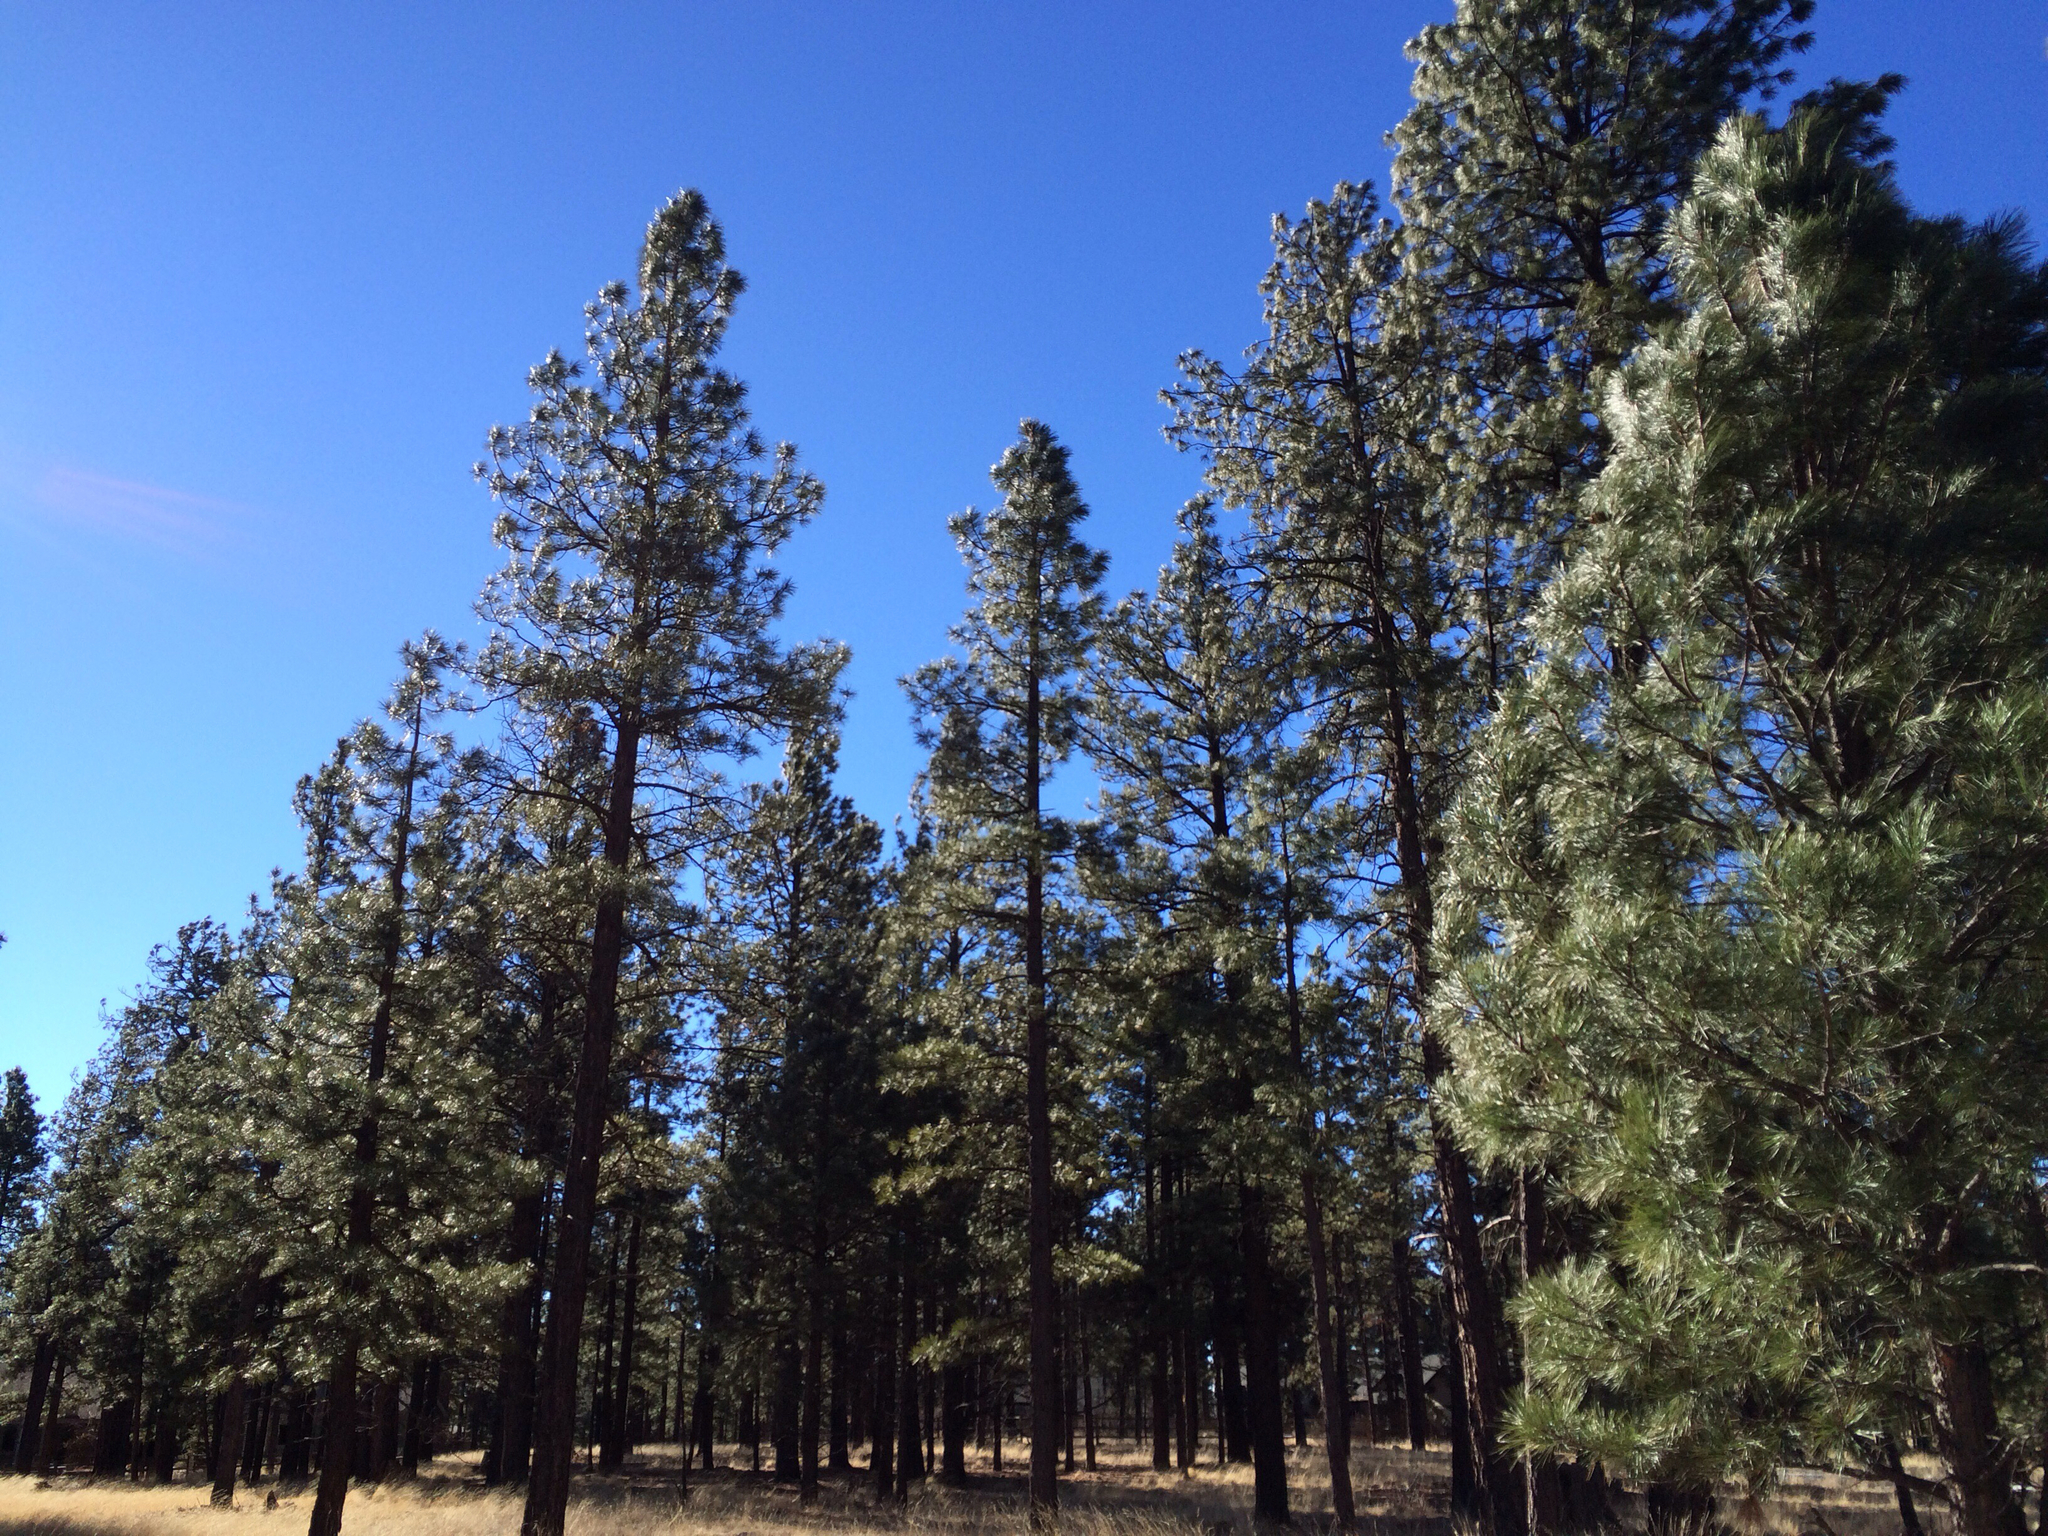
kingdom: Plantae
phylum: Tracheophyta
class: Pinopsida
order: Pinales
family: Pinaceae
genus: Pinus
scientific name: Pinus ponderosa
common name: Western yellow-pine
